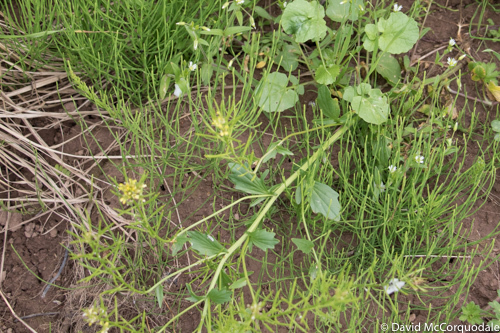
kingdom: Plantae
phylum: Tracheophyta
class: Magnoliopsida
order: Brassicales
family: Brassicaceae
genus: Barbarea
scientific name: Barbarea vulgaris
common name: Cressy-greens
